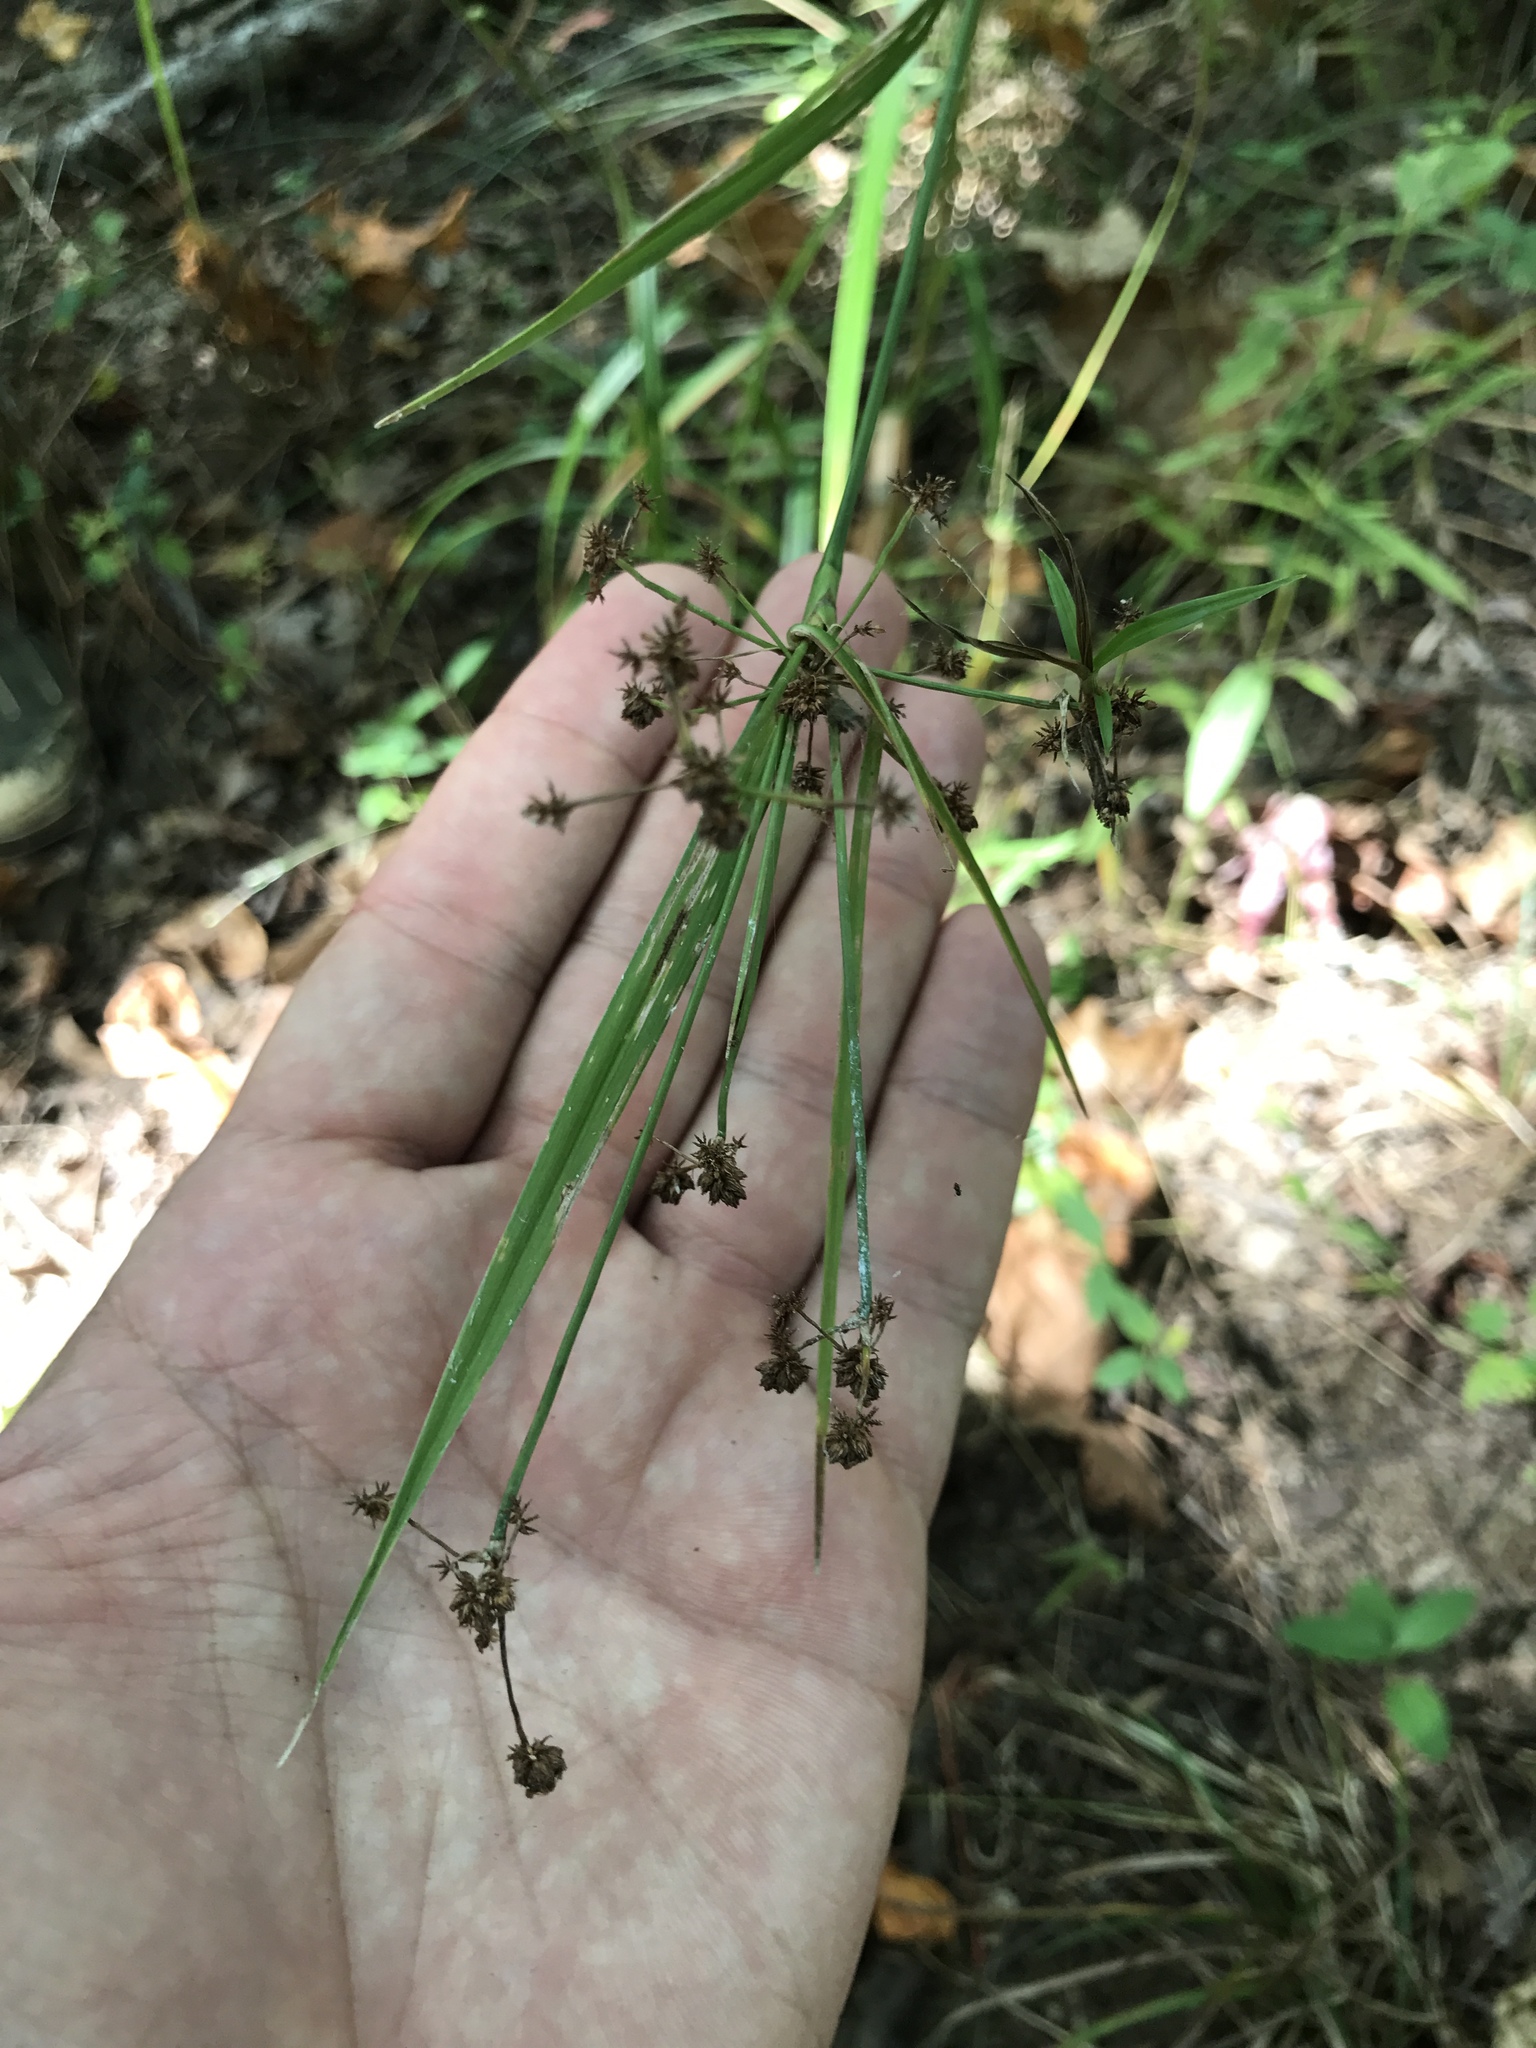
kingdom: Plantae
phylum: Tracheophyta
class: Liliopsida
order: Poales
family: Cyperaceae
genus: Scirpus
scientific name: Scirpus georgianus
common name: Bristleless dark-green bulrush
